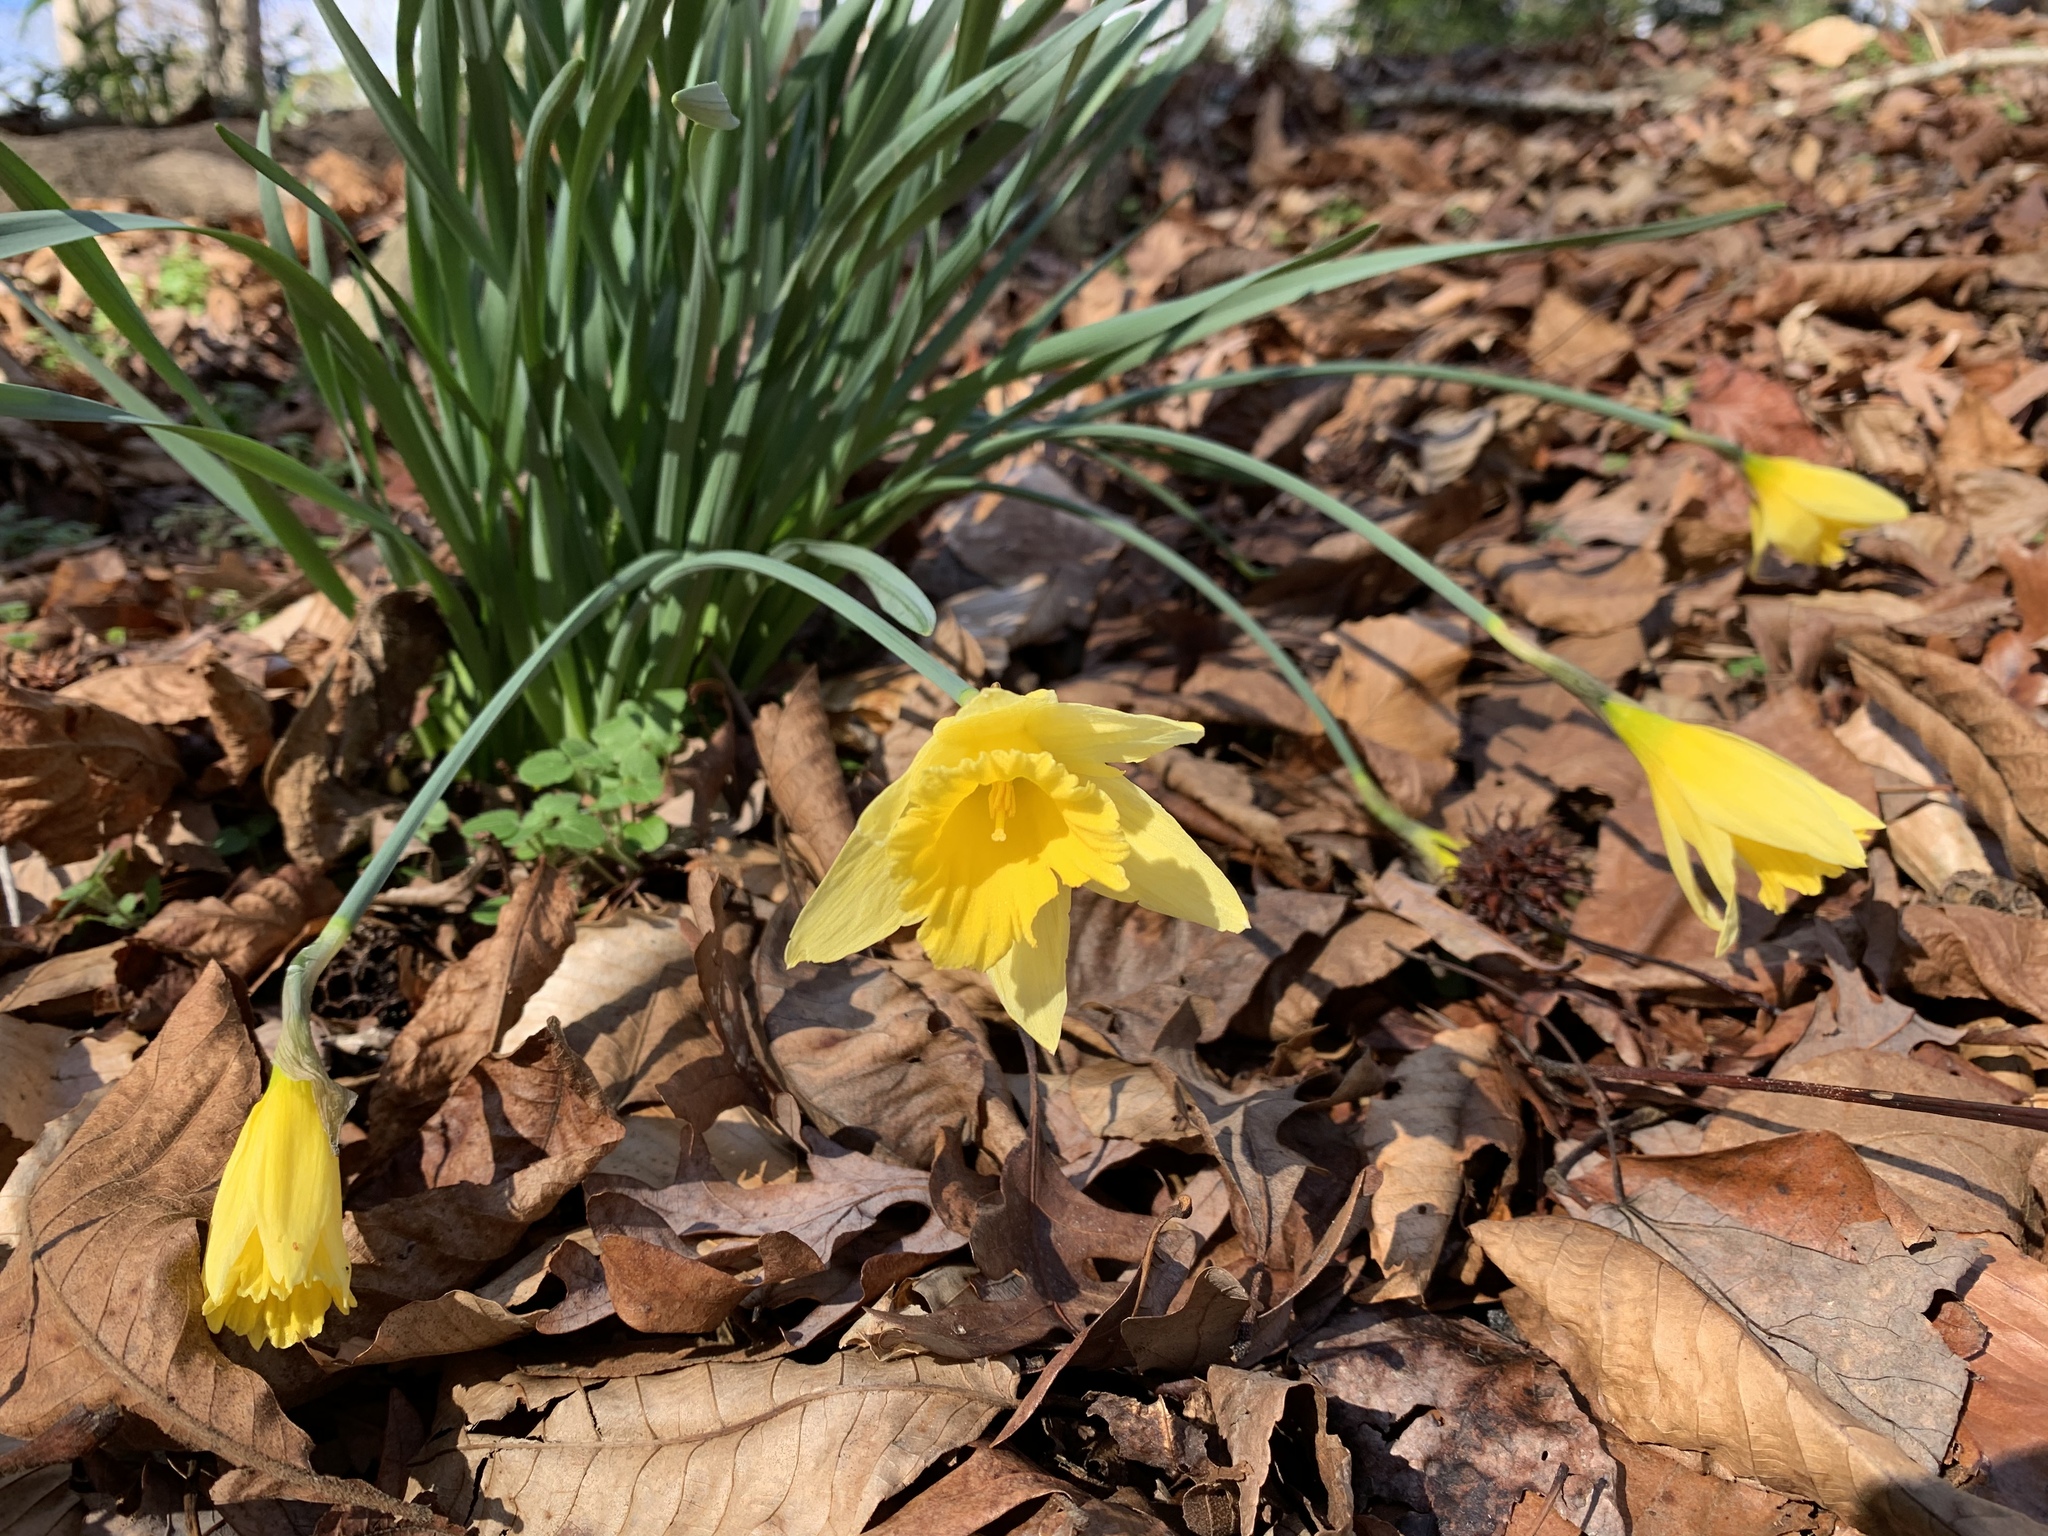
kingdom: Plantae
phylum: Tracheophyta
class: Liliopsida
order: Asparagales
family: Amaryllidaceae
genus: Narcissus
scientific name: Narcissus pseudonarcissus
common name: Daffodil
